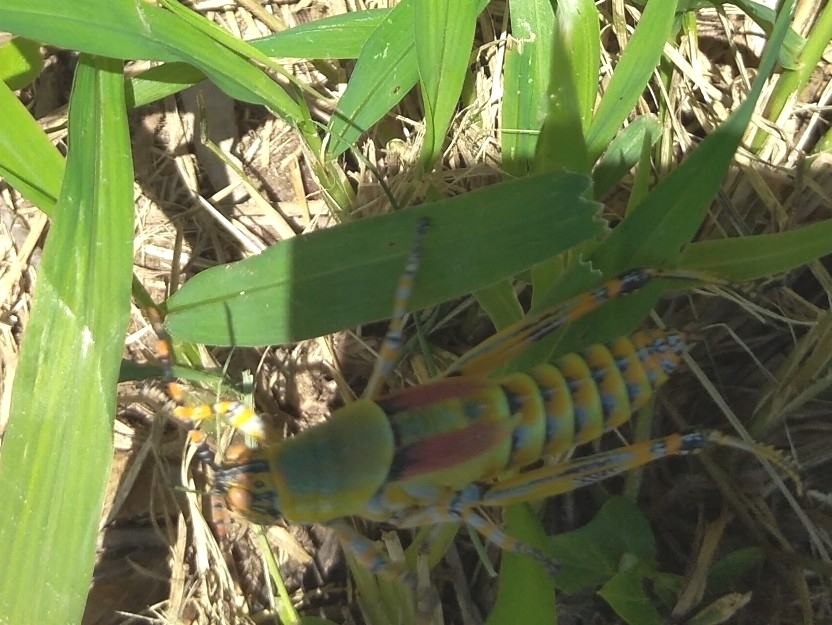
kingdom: Animalia
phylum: Arthropoda
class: Insecta
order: Orthoptera
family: Pyrgomorphidae
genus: Zonocerus
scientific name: Zonocerus elegans
